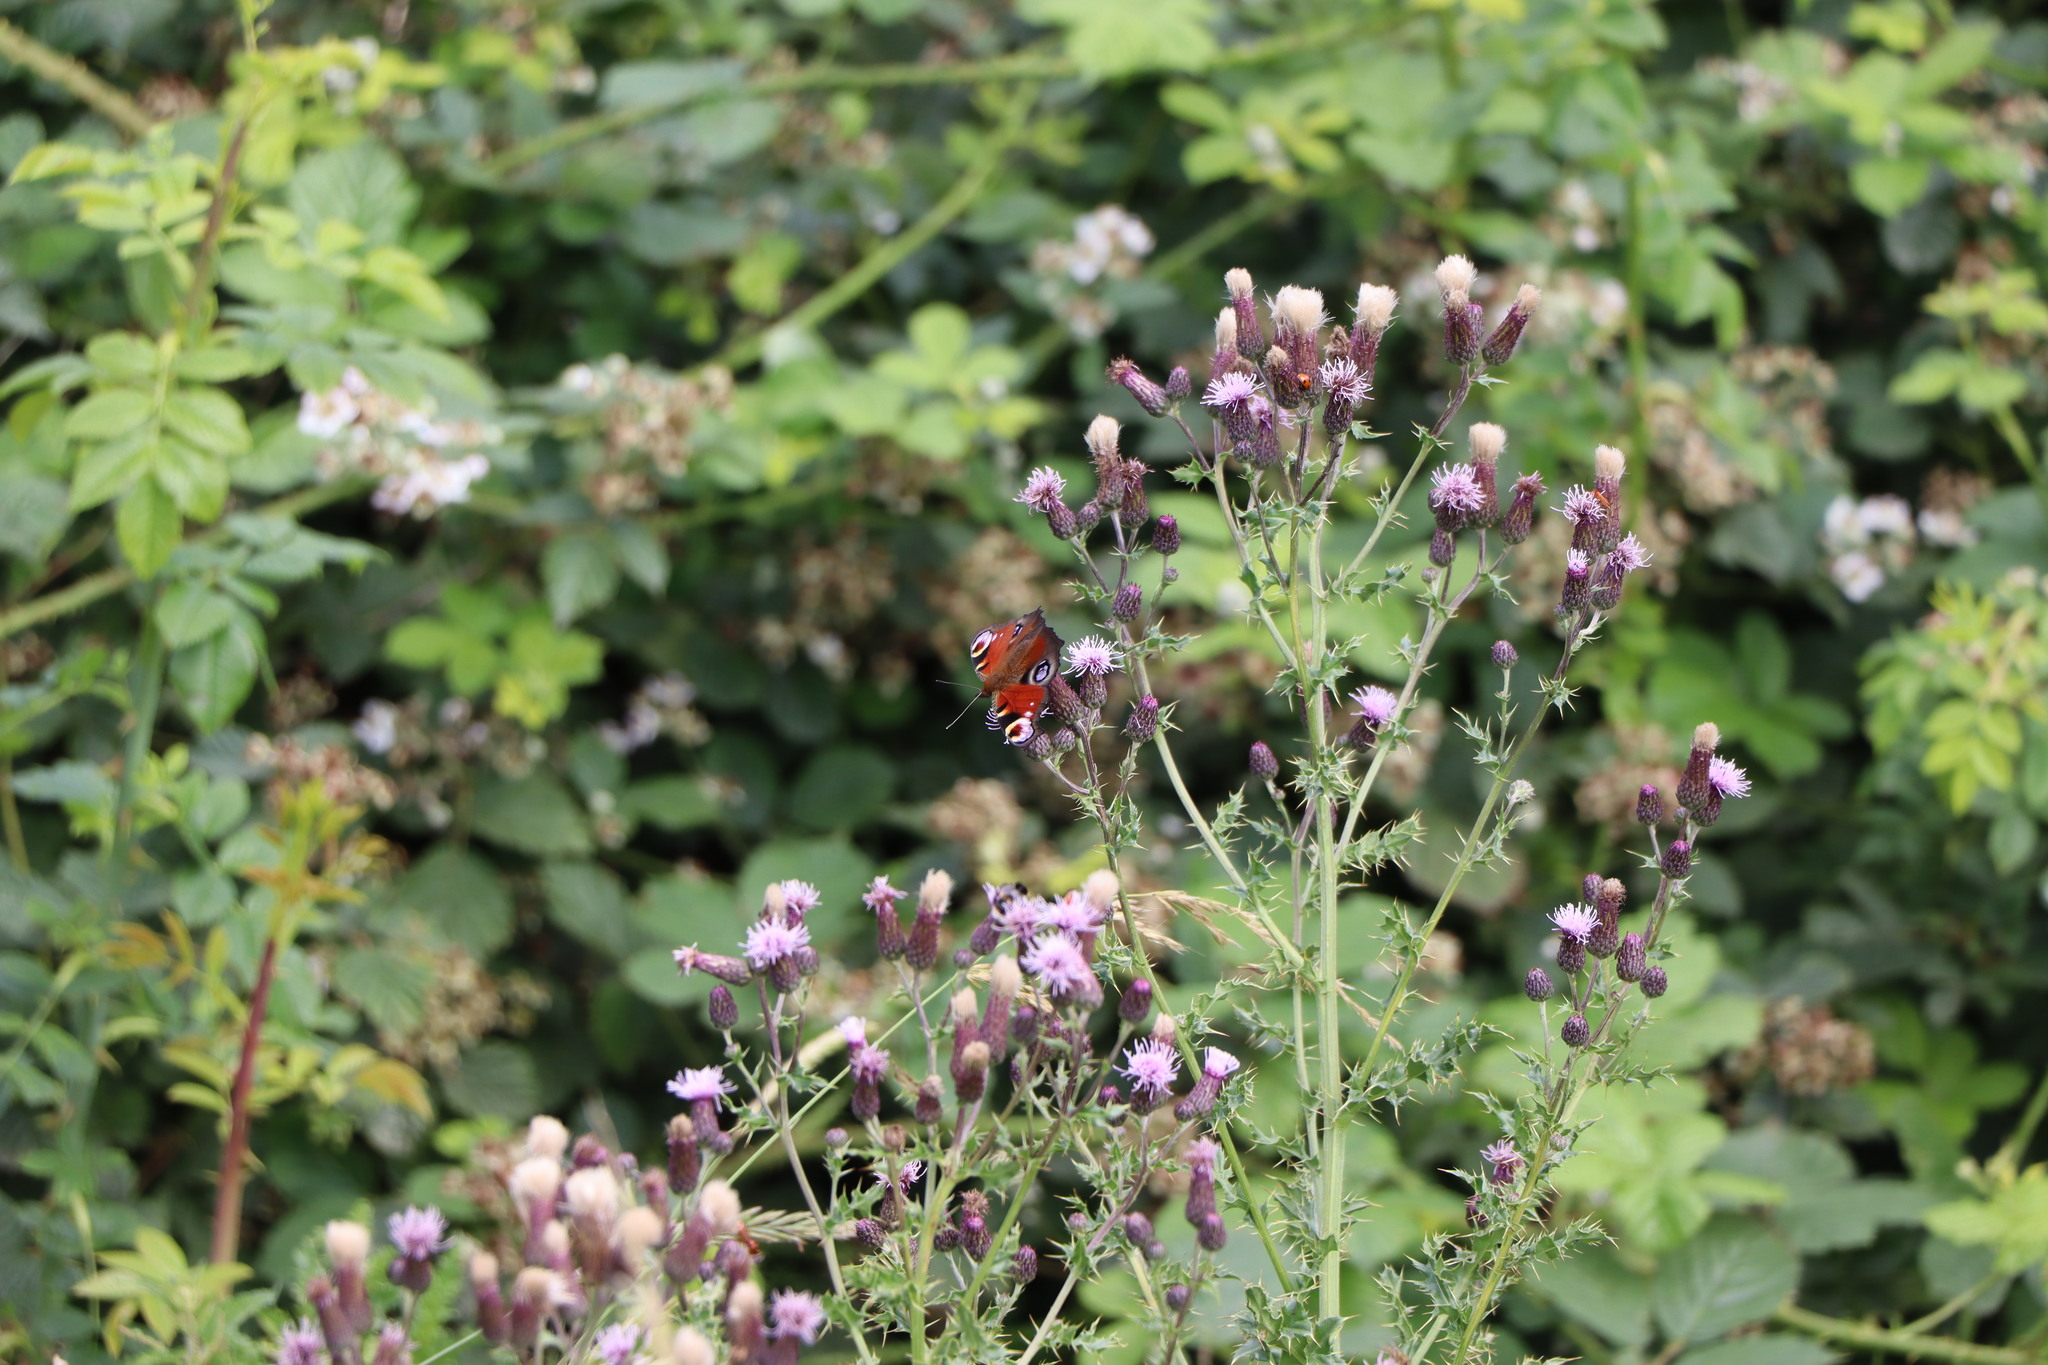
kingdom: Animalia
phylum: Arthropoda
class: Insecta
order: Lepidoptera
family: Nymphalidae
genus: Aglais
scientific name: Aglais io
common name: Peacock
